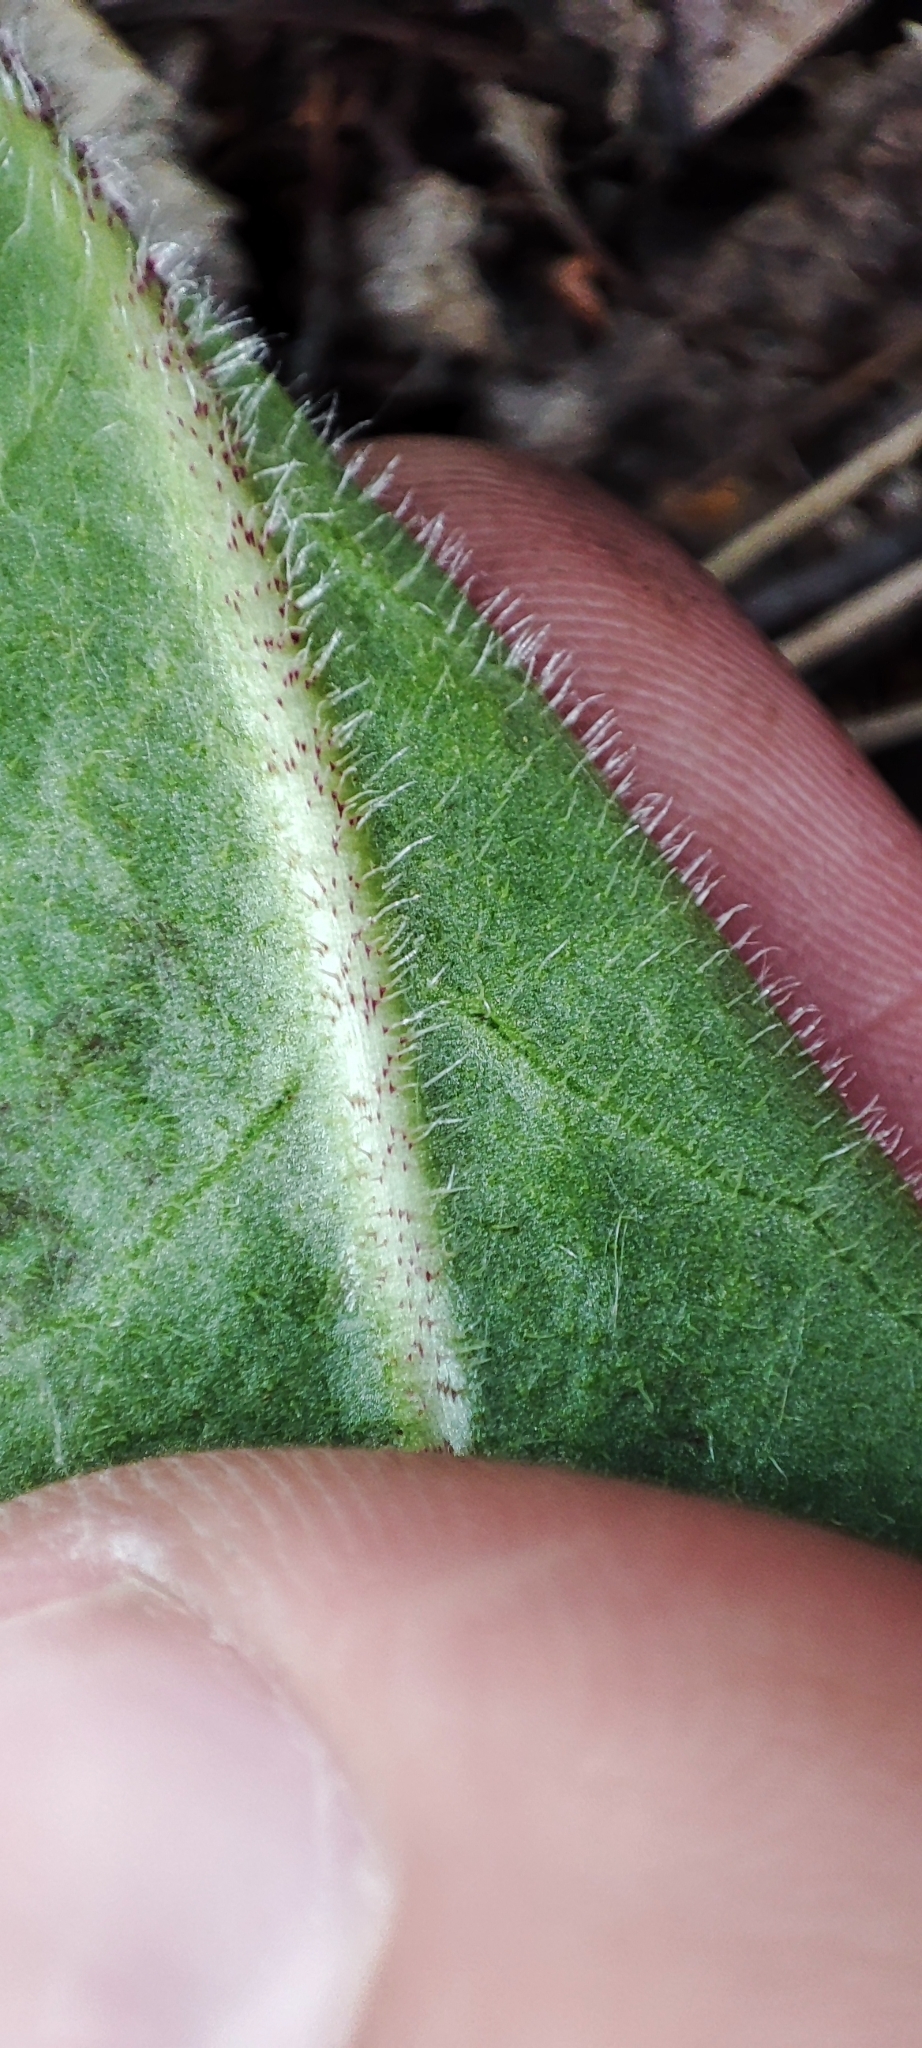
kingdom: Plantae
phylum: Tracheophyta
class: Magnoliopsida
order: Asterales
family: Asteraceae
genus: Trommsdorffia
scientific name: Trommsdorffia maculata
